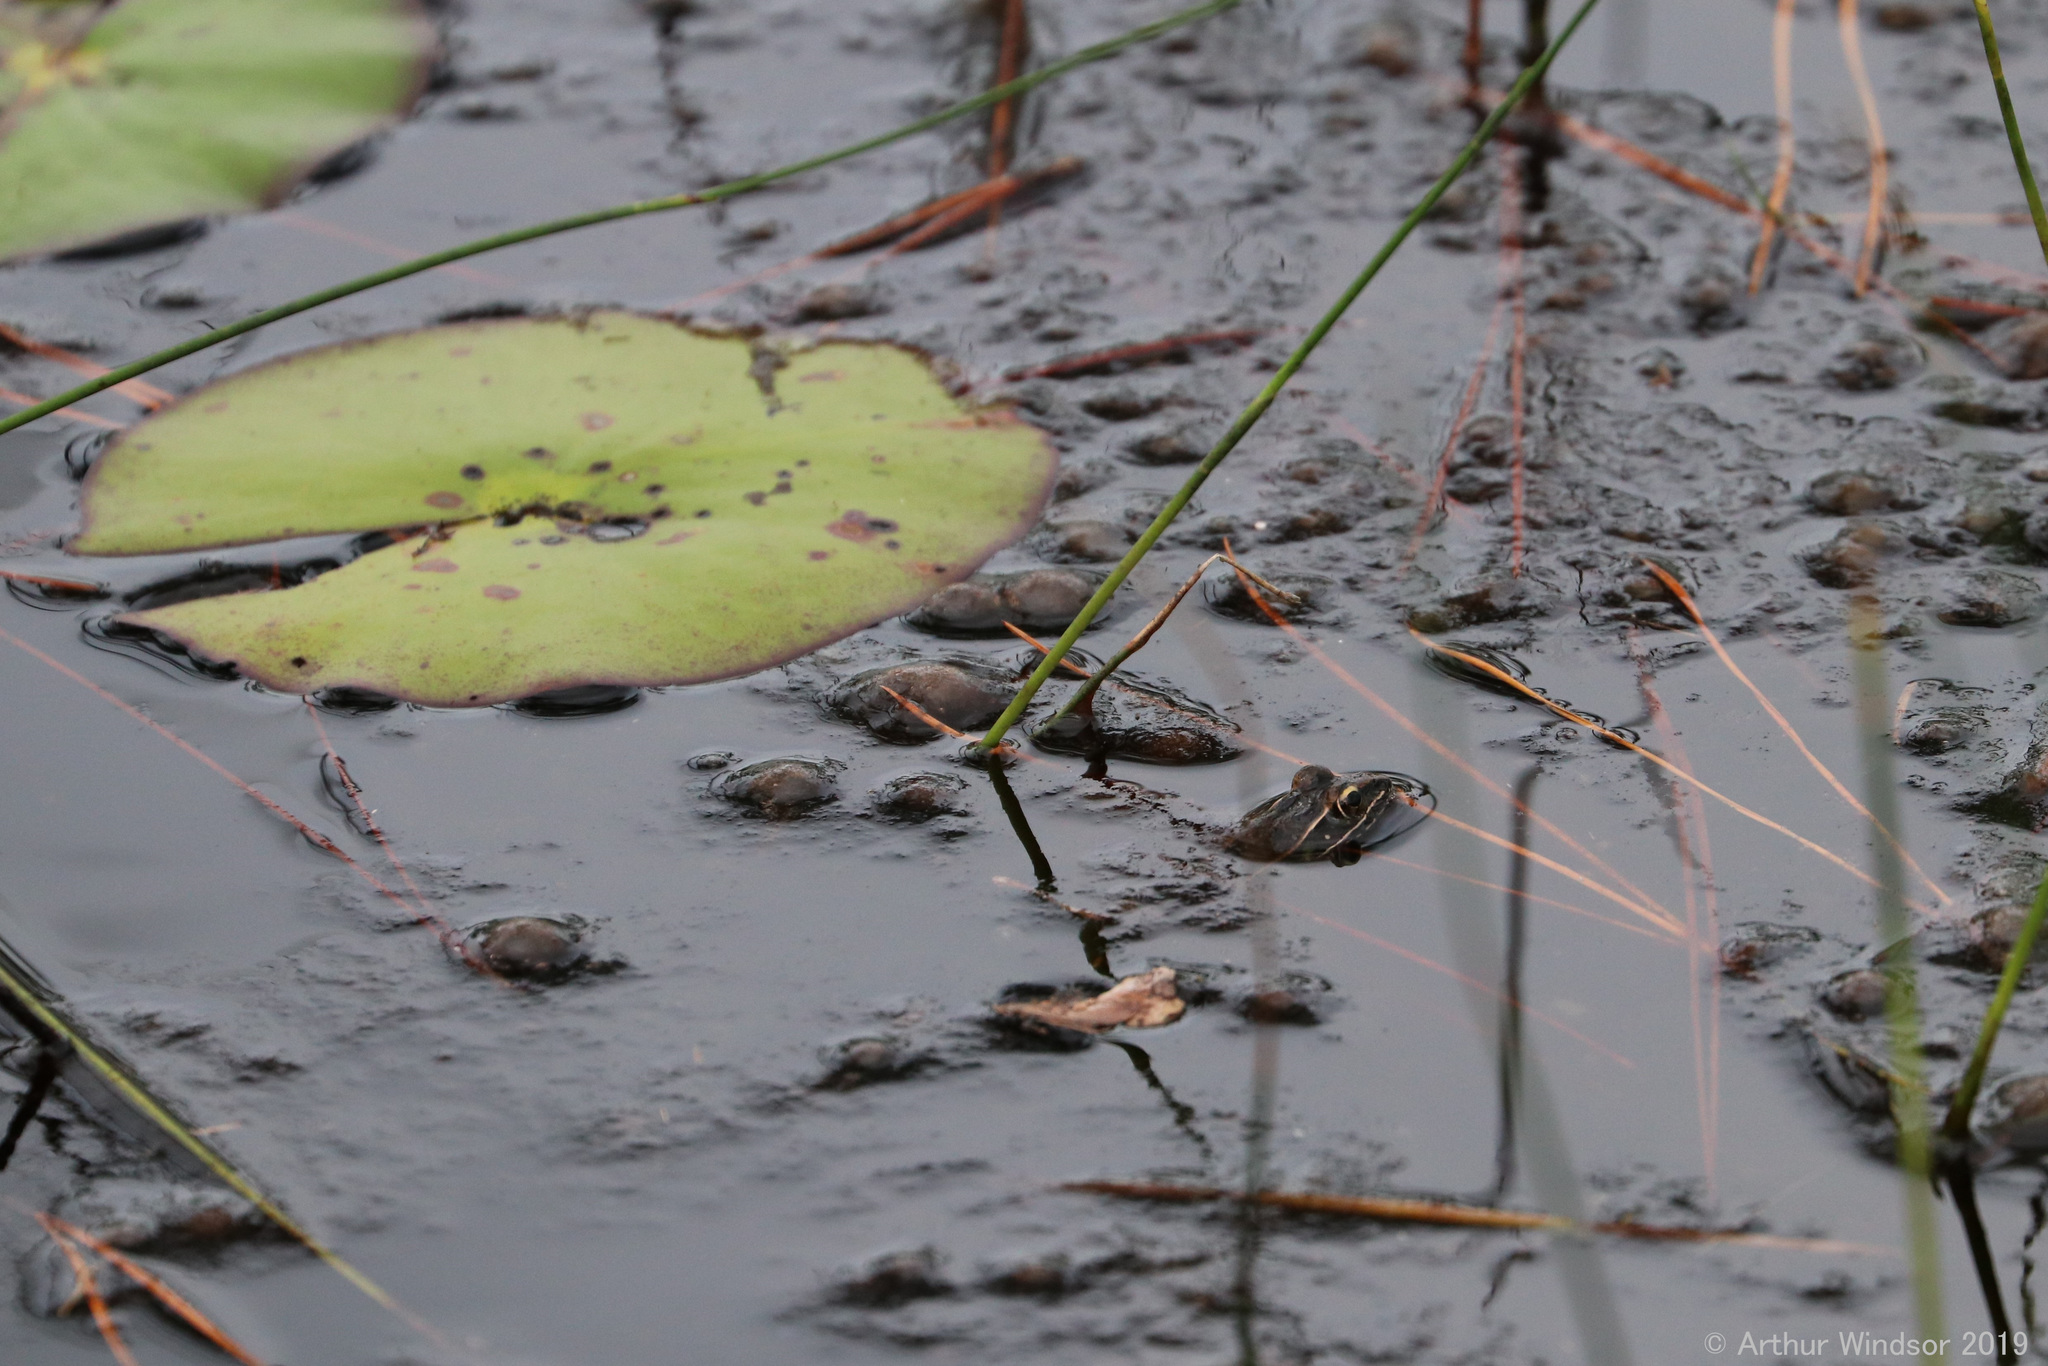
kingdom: Animalia
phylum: Chordata
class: Amphibia
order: Anura
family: Ranidae
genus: Lithobates
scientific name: Lithobates sphenocephalus
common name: Southern leopard frog
